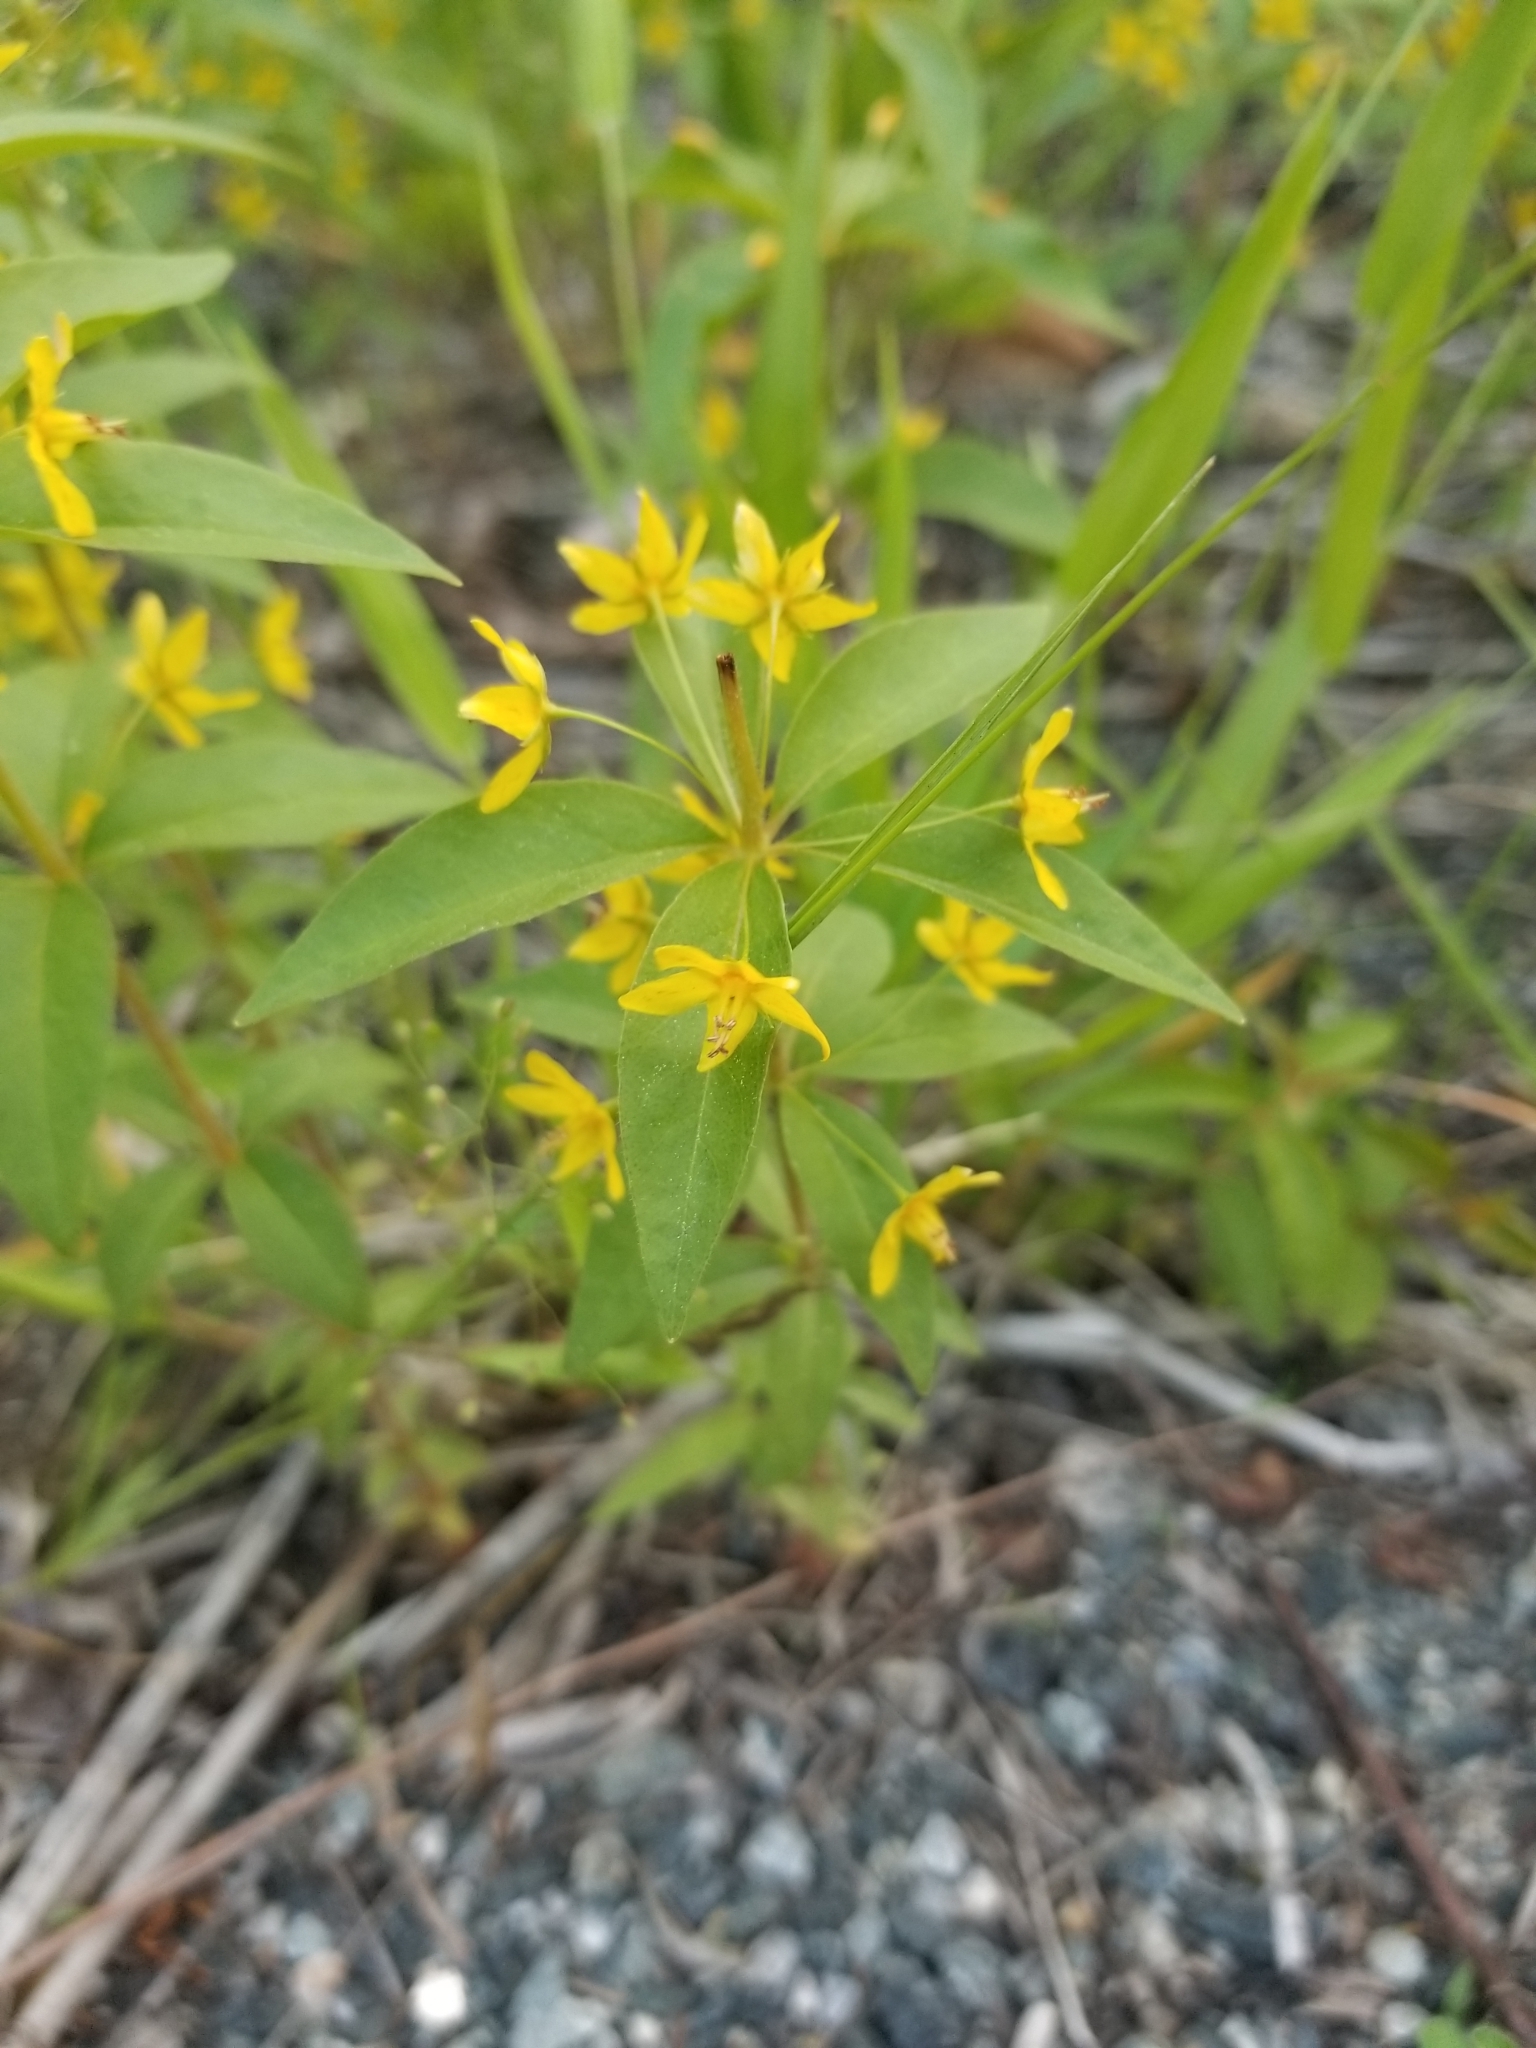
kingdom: Plantae
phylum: Tracheophyta
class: Magnoliopsida
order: Ericales
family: Primulaceae
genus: Lysimachia
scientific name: Lysimachia quadrifolia
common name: Whorled loosestrife
